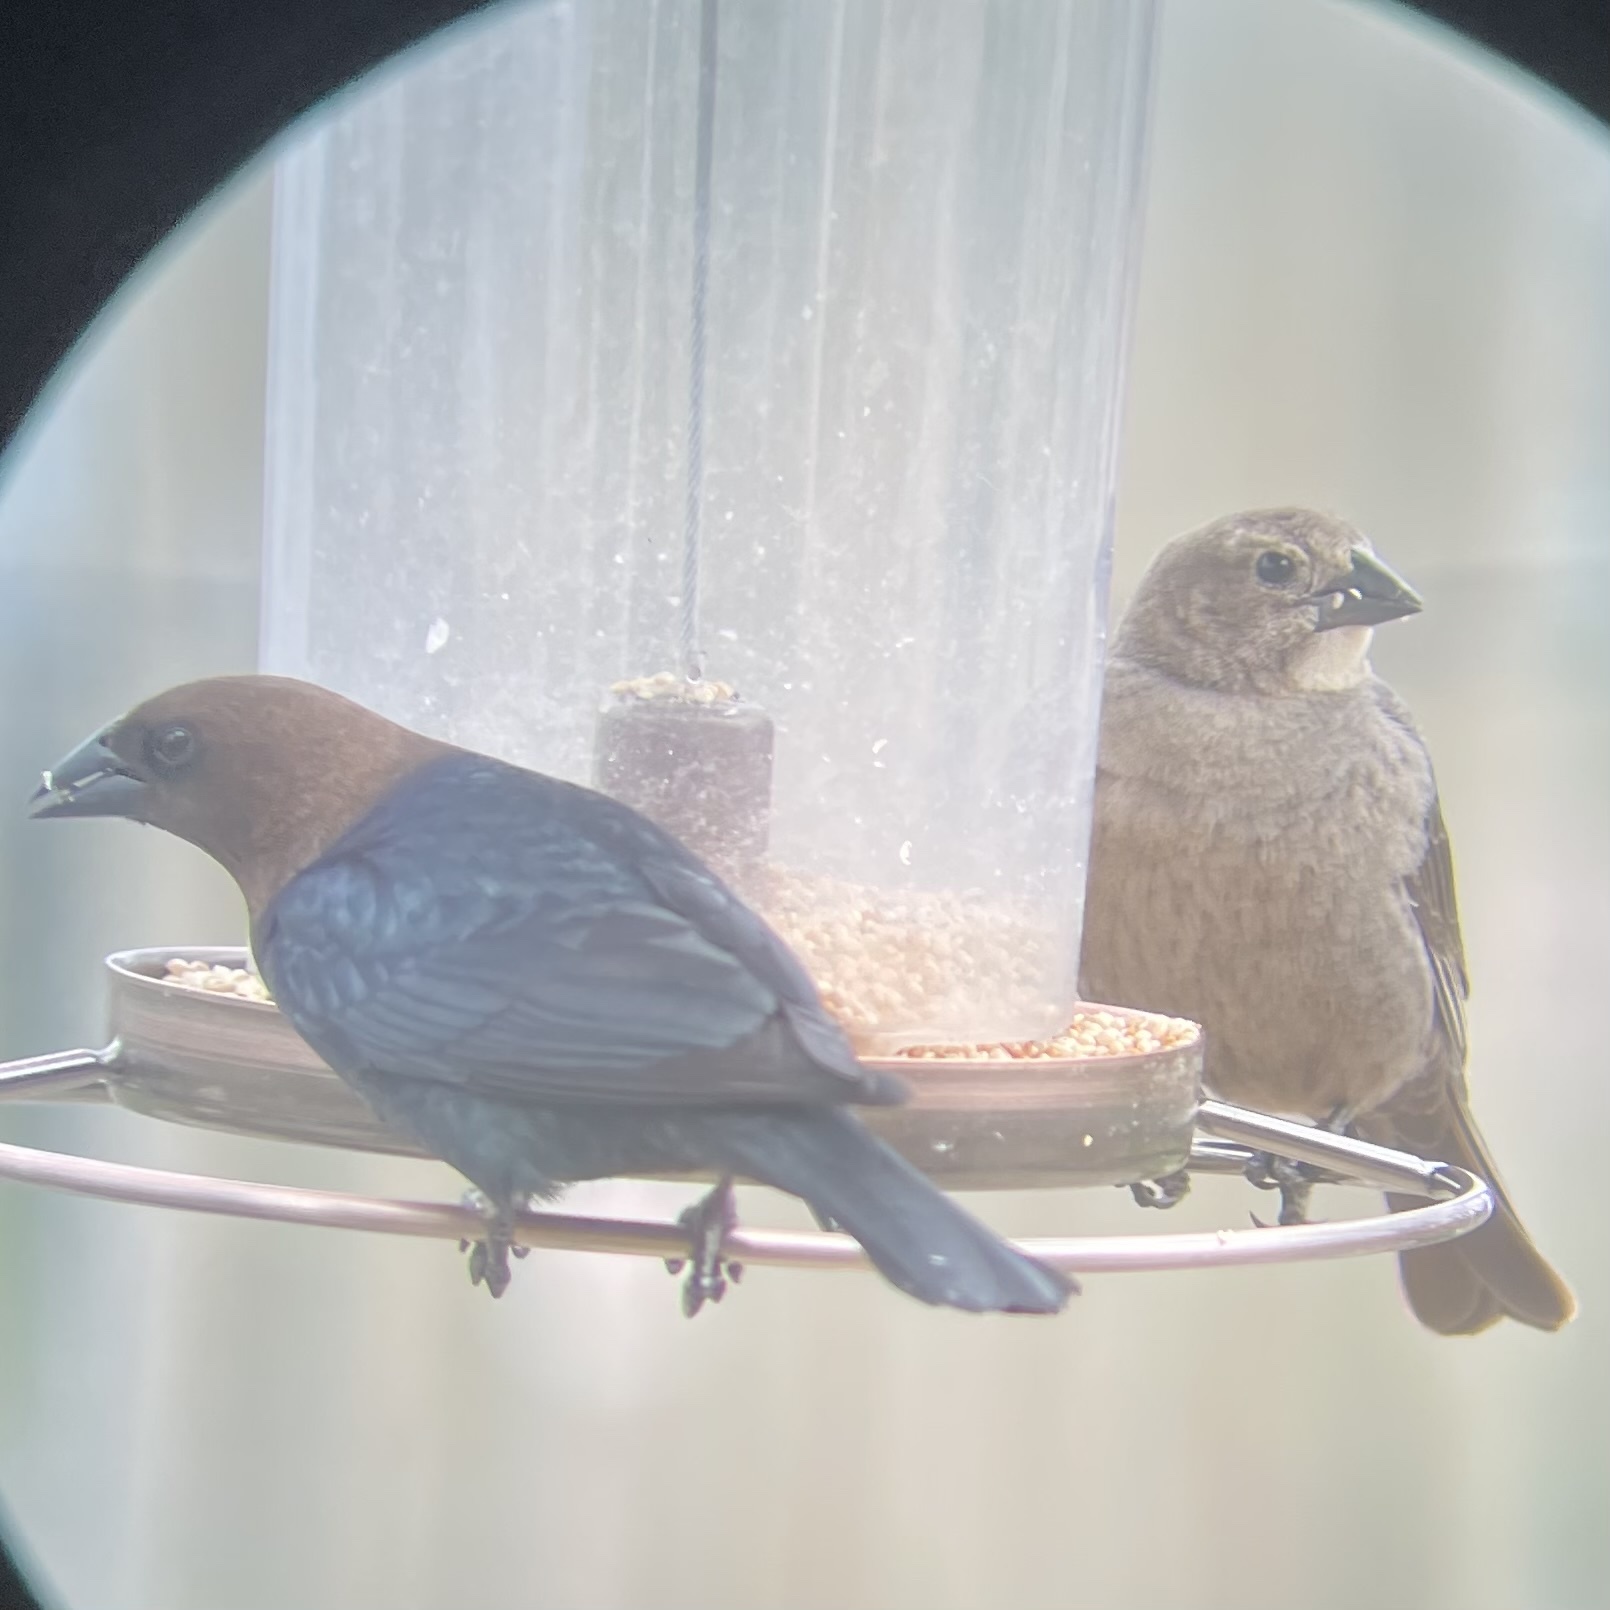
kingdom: Animalia
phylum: Chordata
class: Aves
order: Passeriformes
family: Icteridae
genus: Molothrus
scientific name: Molothrus ater
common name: Brown-headed cowbird
